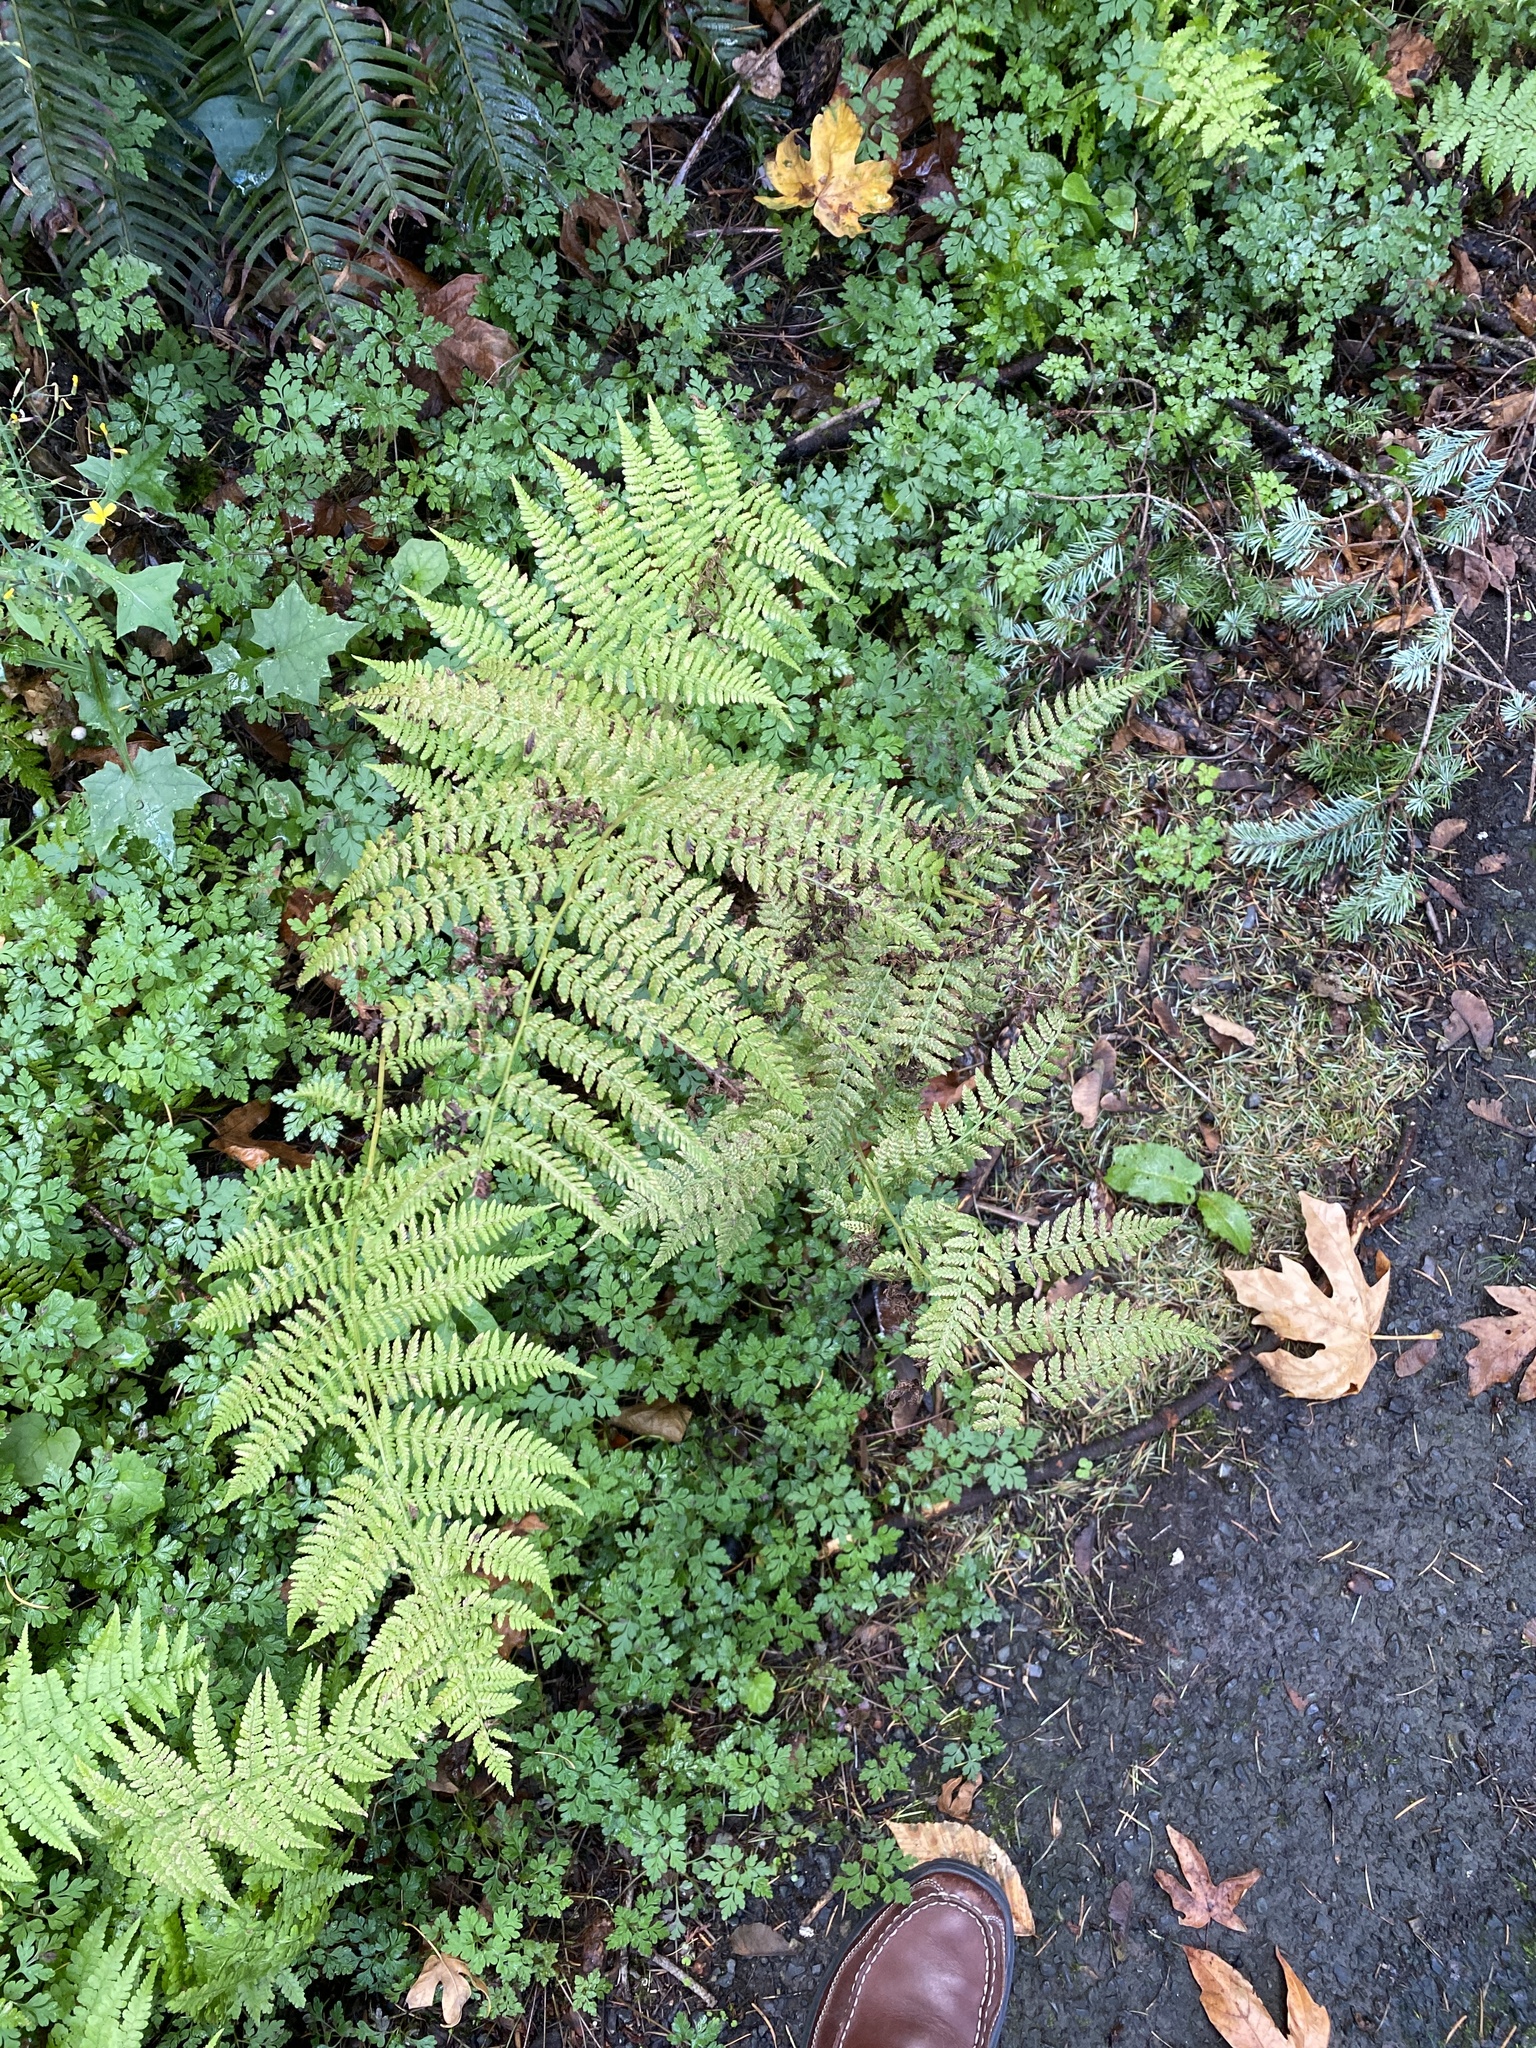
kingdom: Plantae
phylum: Tracheophyta
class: Polypodiopsida
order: Polypodiales
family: Dennstaedtiaceae
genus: Pteridium
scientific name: Pteridium aquilinum
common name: Bracken
